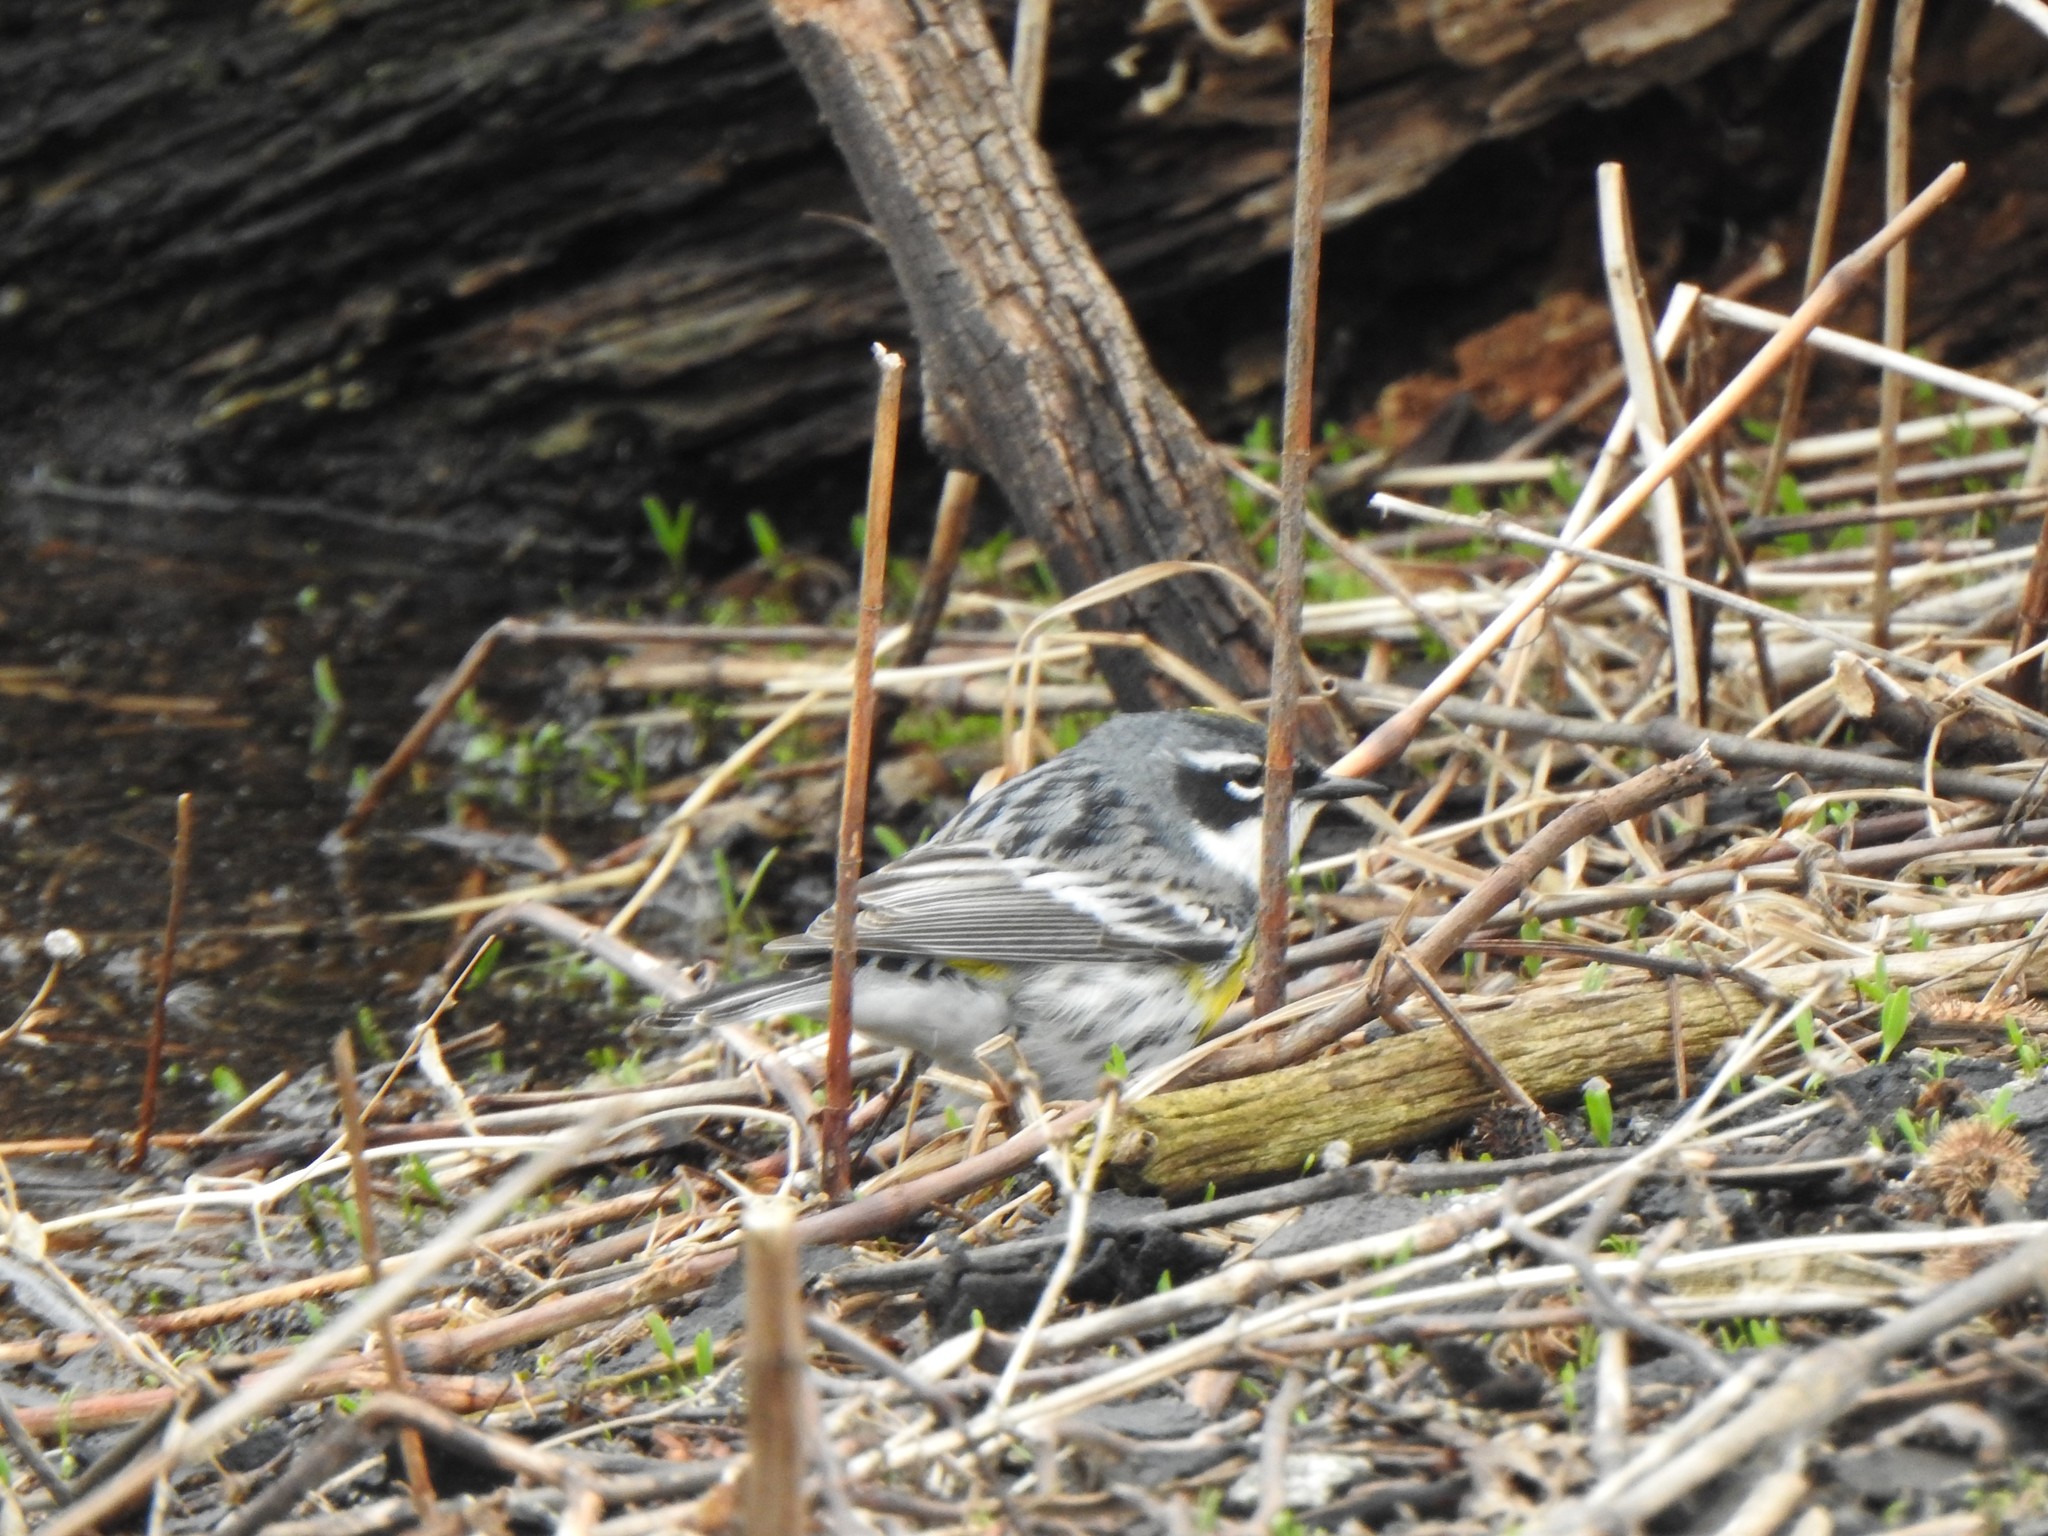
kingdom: Animalia
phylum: Chordata
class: Aves
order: Passeriformes
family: Parulidae
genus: Setophaga
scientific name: Setophaga coronata
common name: Myrtle warbler
